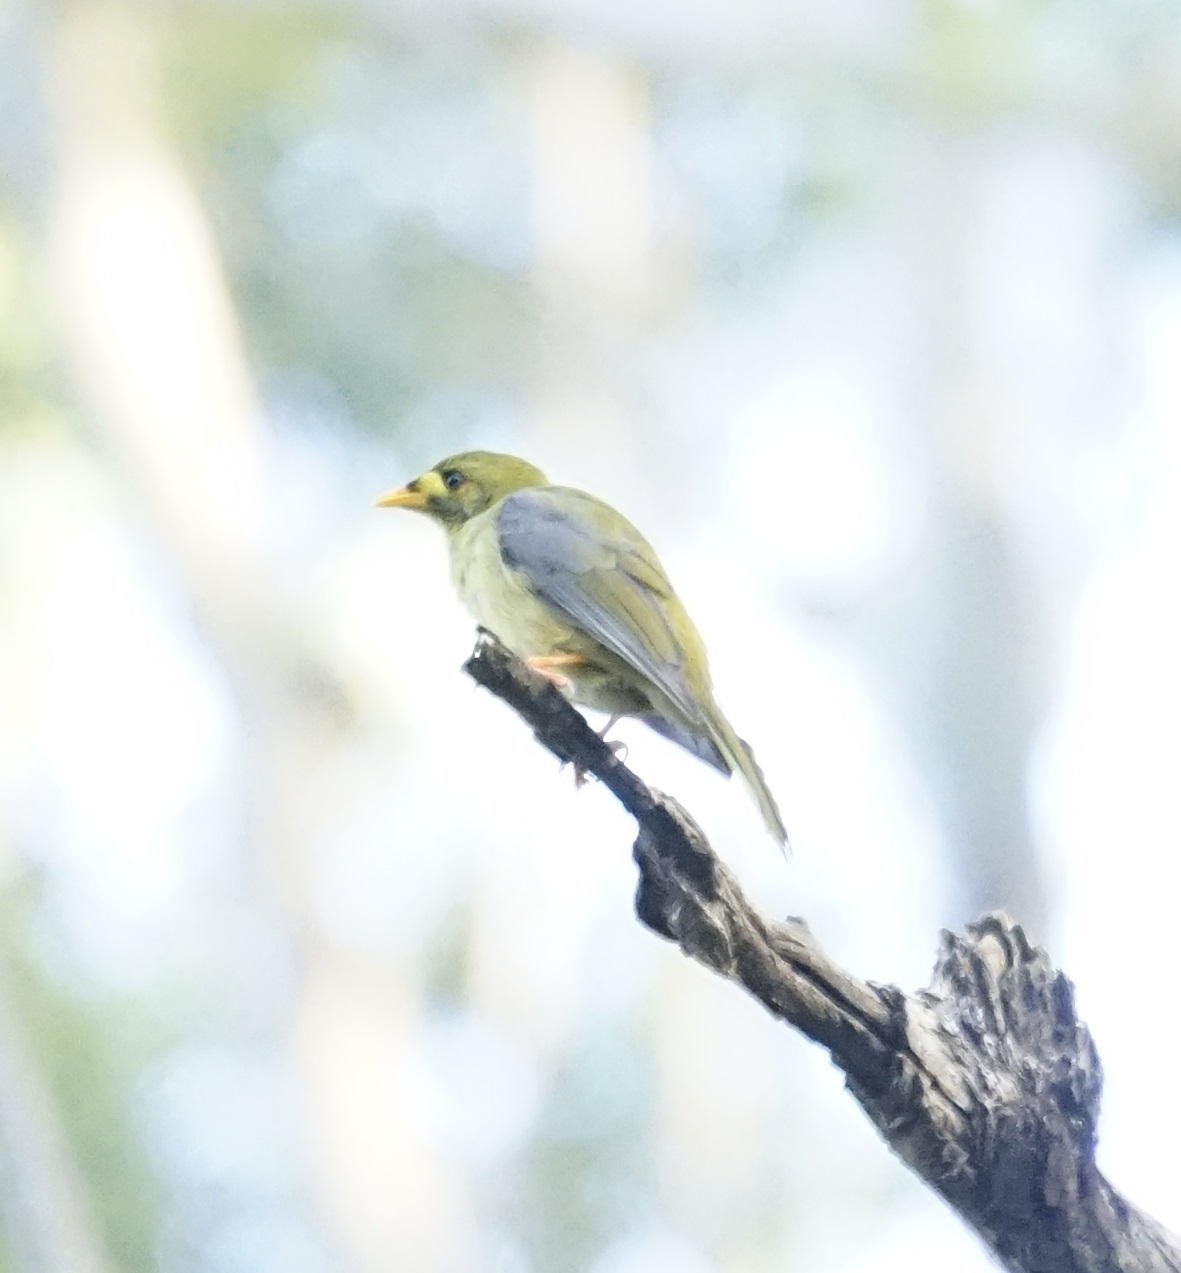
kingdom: Animalia
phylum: Chordata
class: Aves
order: Passeriformes
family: Meliphagidae
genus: Manorina
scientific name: Manorina melanophrys
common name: Bell miner
